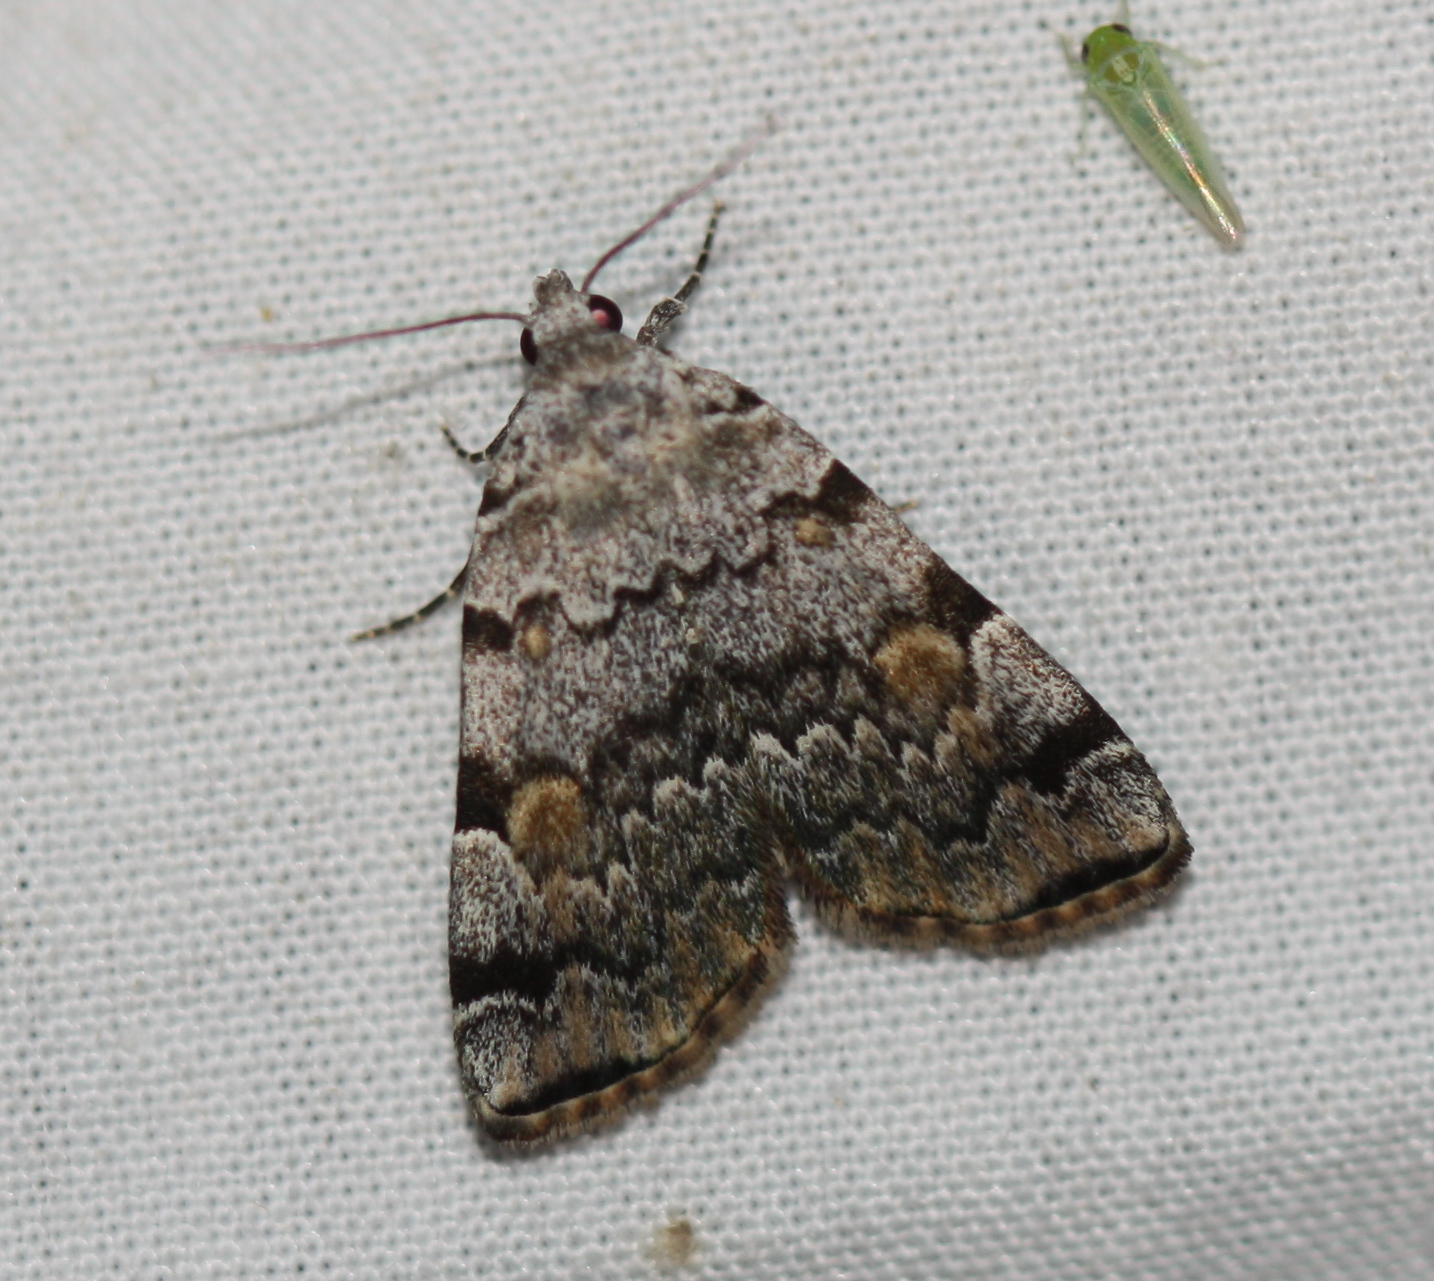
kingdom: Animalia
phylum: Arthropoda
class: Insecta
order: Lepidoptera
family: Erebidae
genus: Idia
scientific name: Idia americalis
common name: American idia moth
